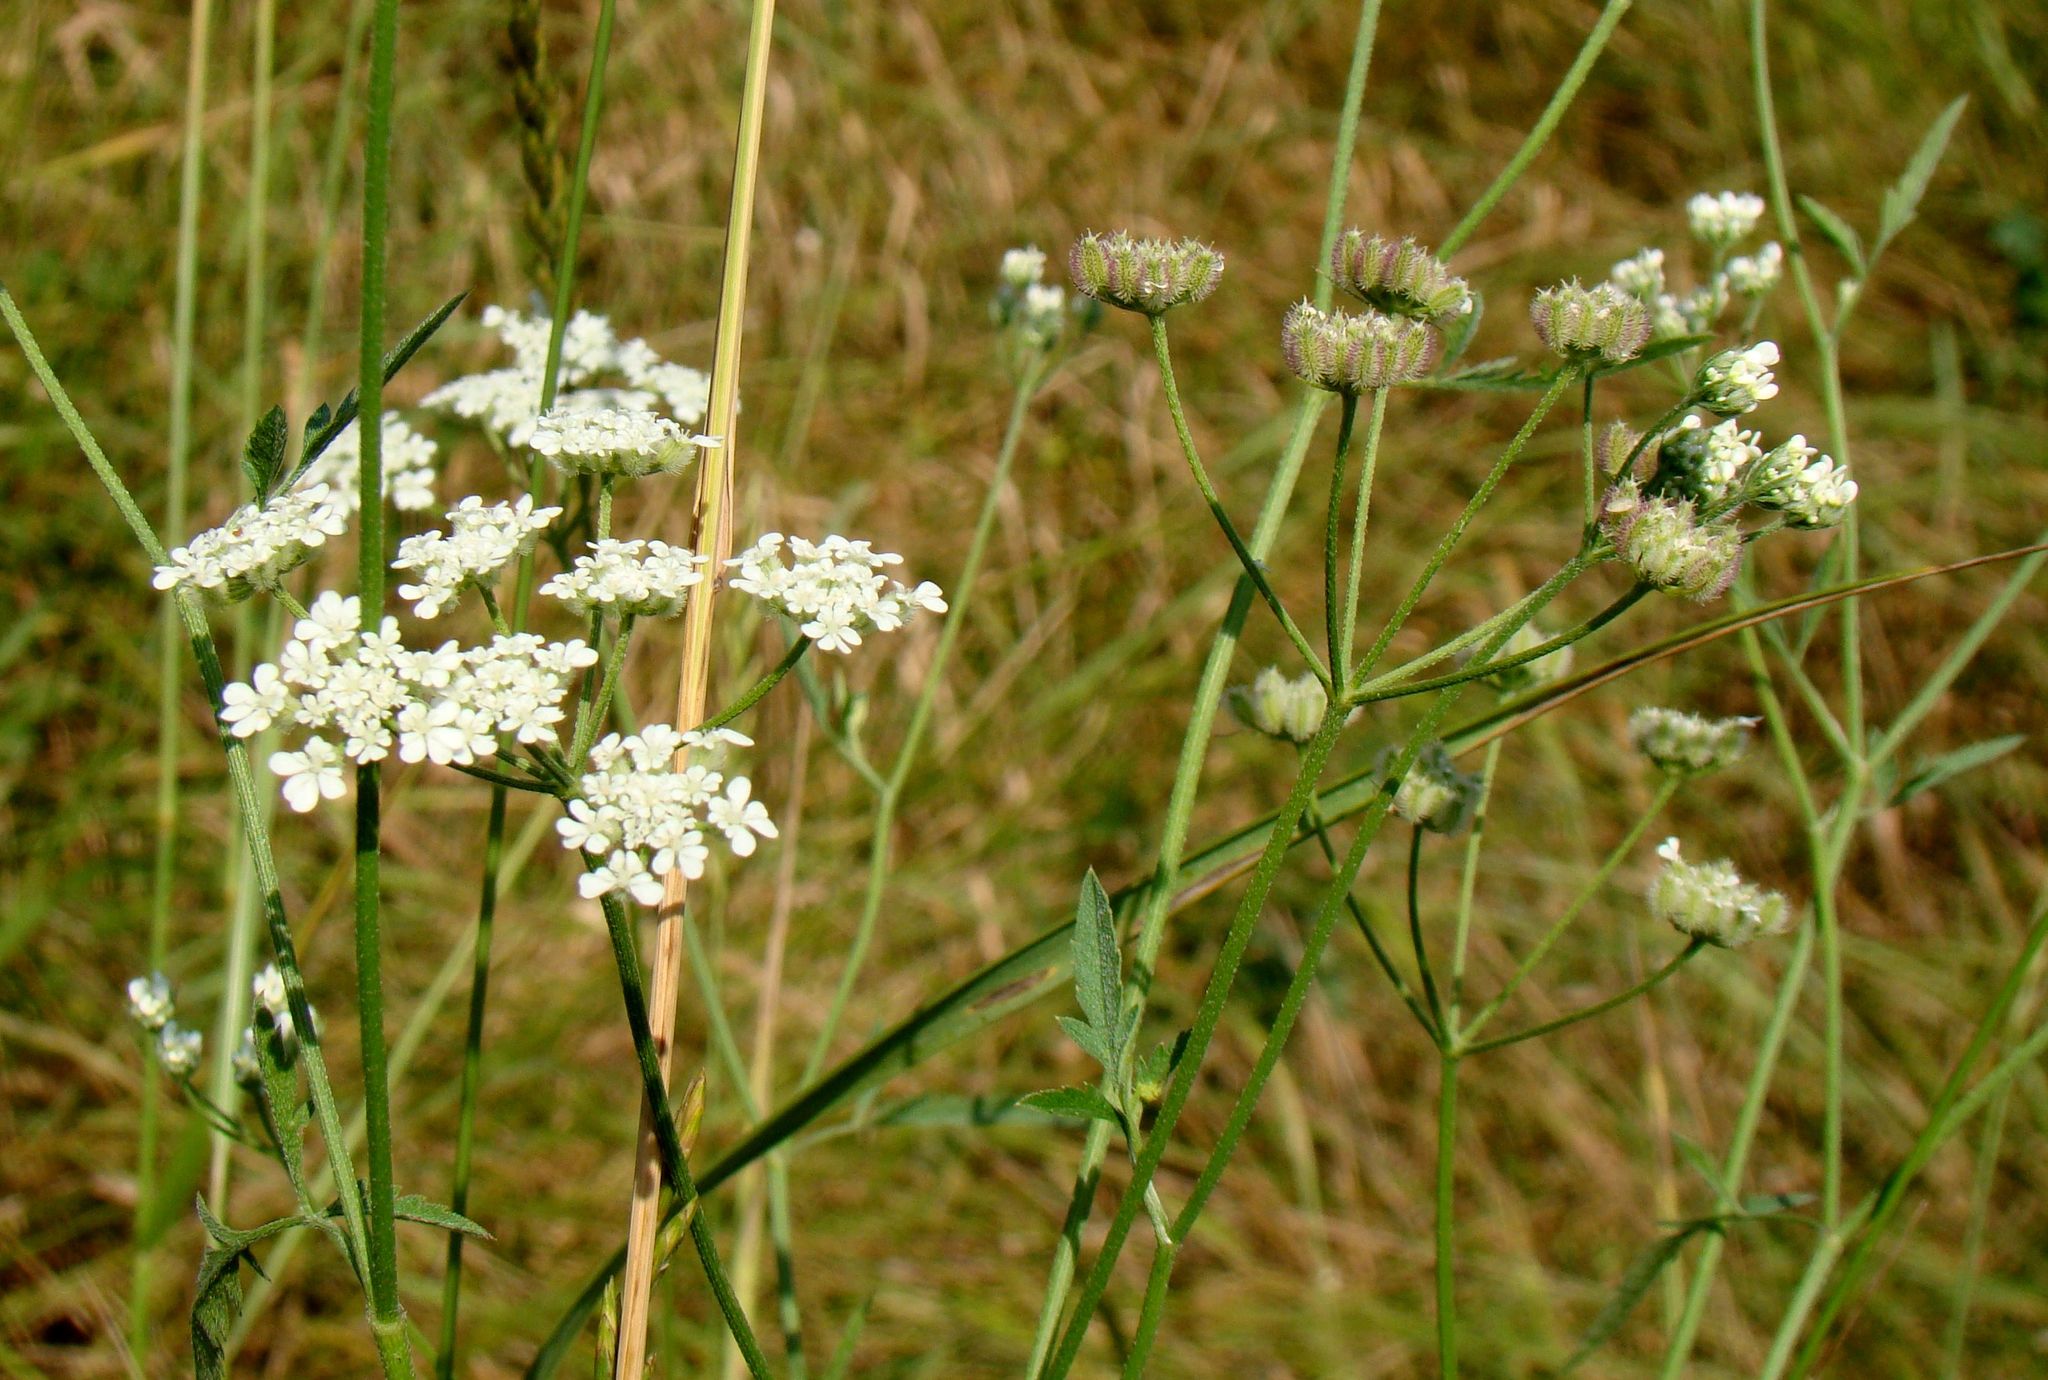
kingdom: Plantae
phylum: Tracheophyta
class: Magnoliopsida
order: Apiales
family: Apiaceae
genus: Torilis
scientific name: Torilis arvensis
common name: Spreading hedge-parsley
